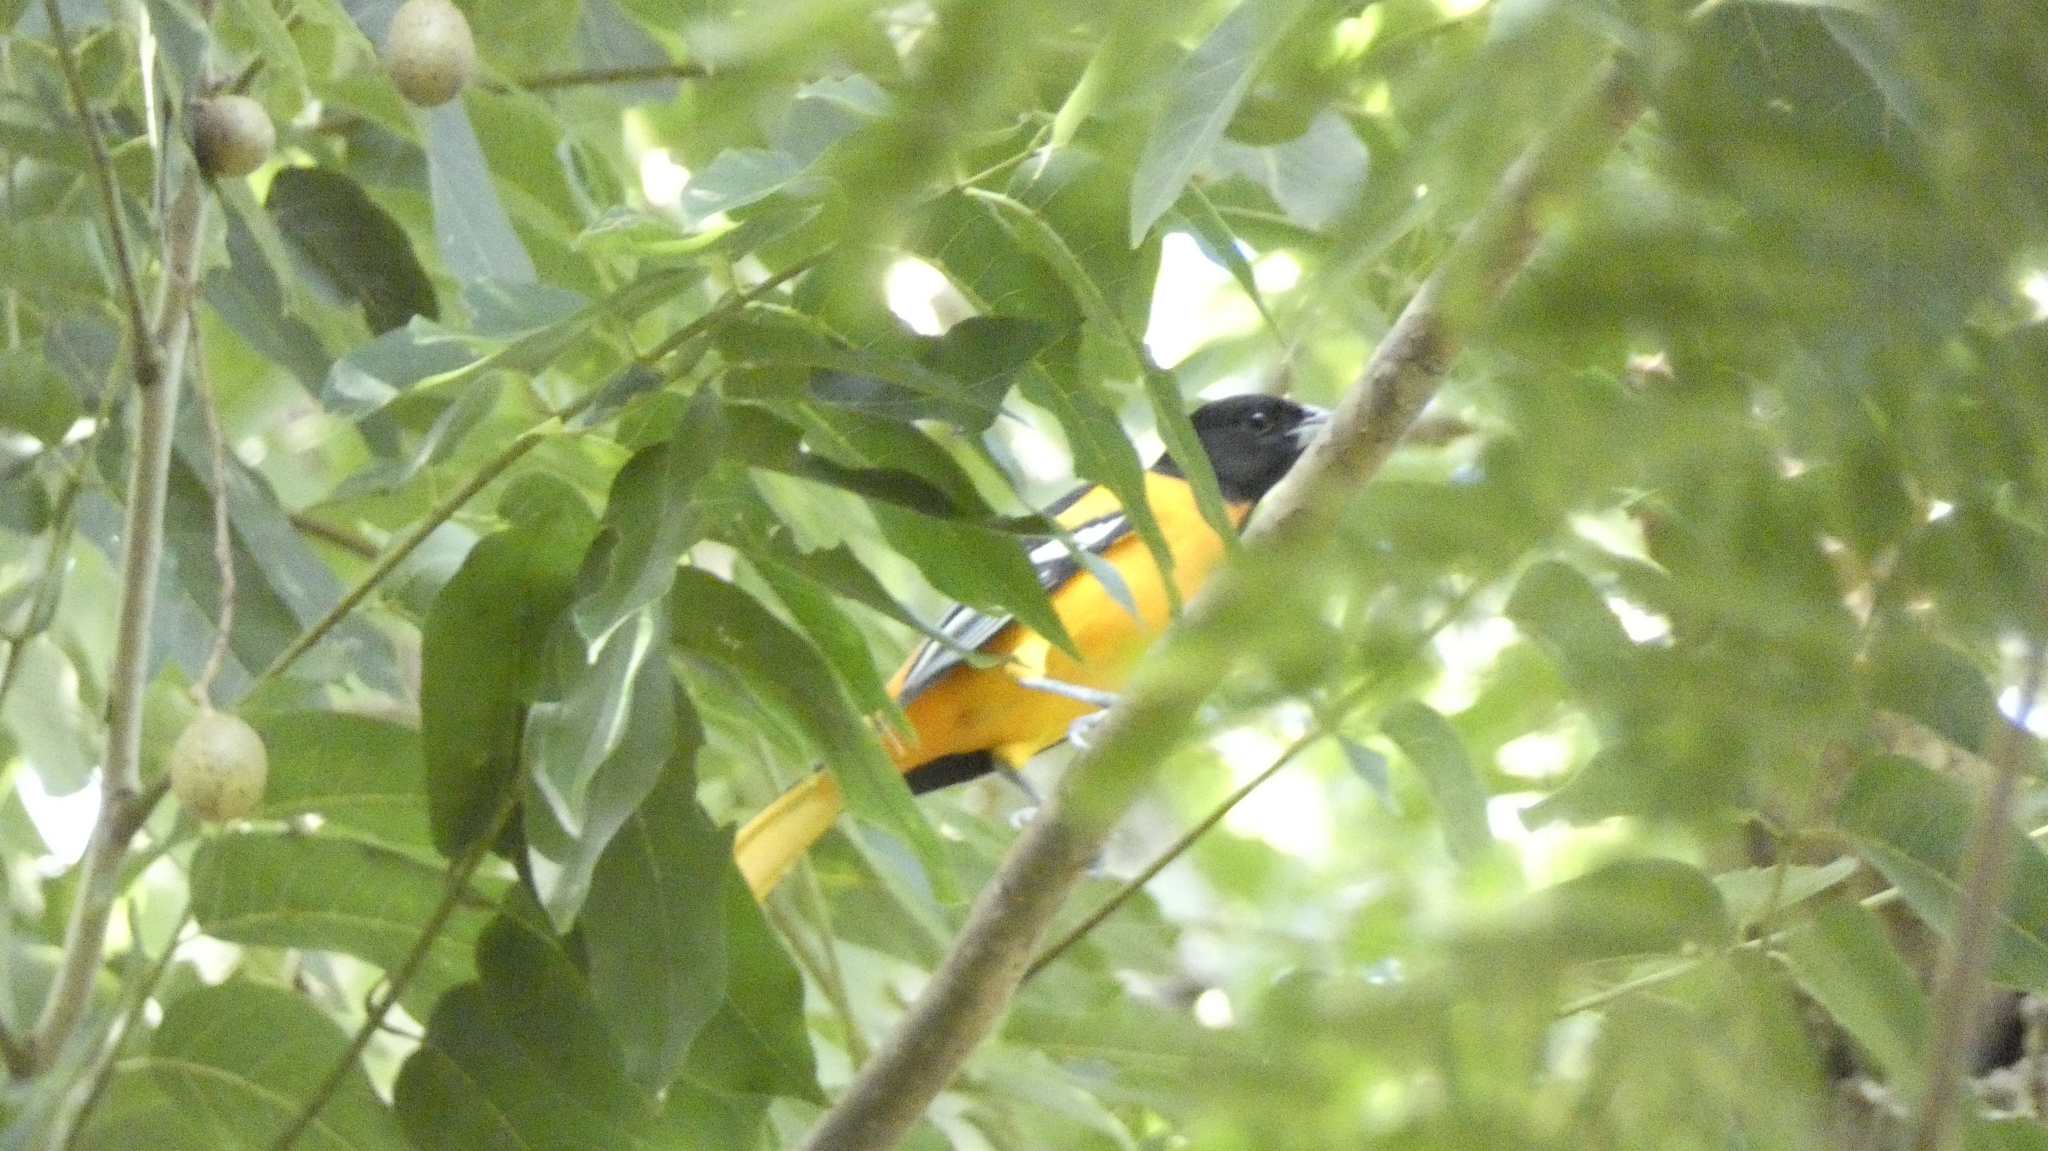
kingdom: Animalia
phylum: Chordata
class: Aves
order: Passeriformes
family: Icteridae
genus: Icterus
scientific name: Icterus galbula
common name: Baltimore oriole
